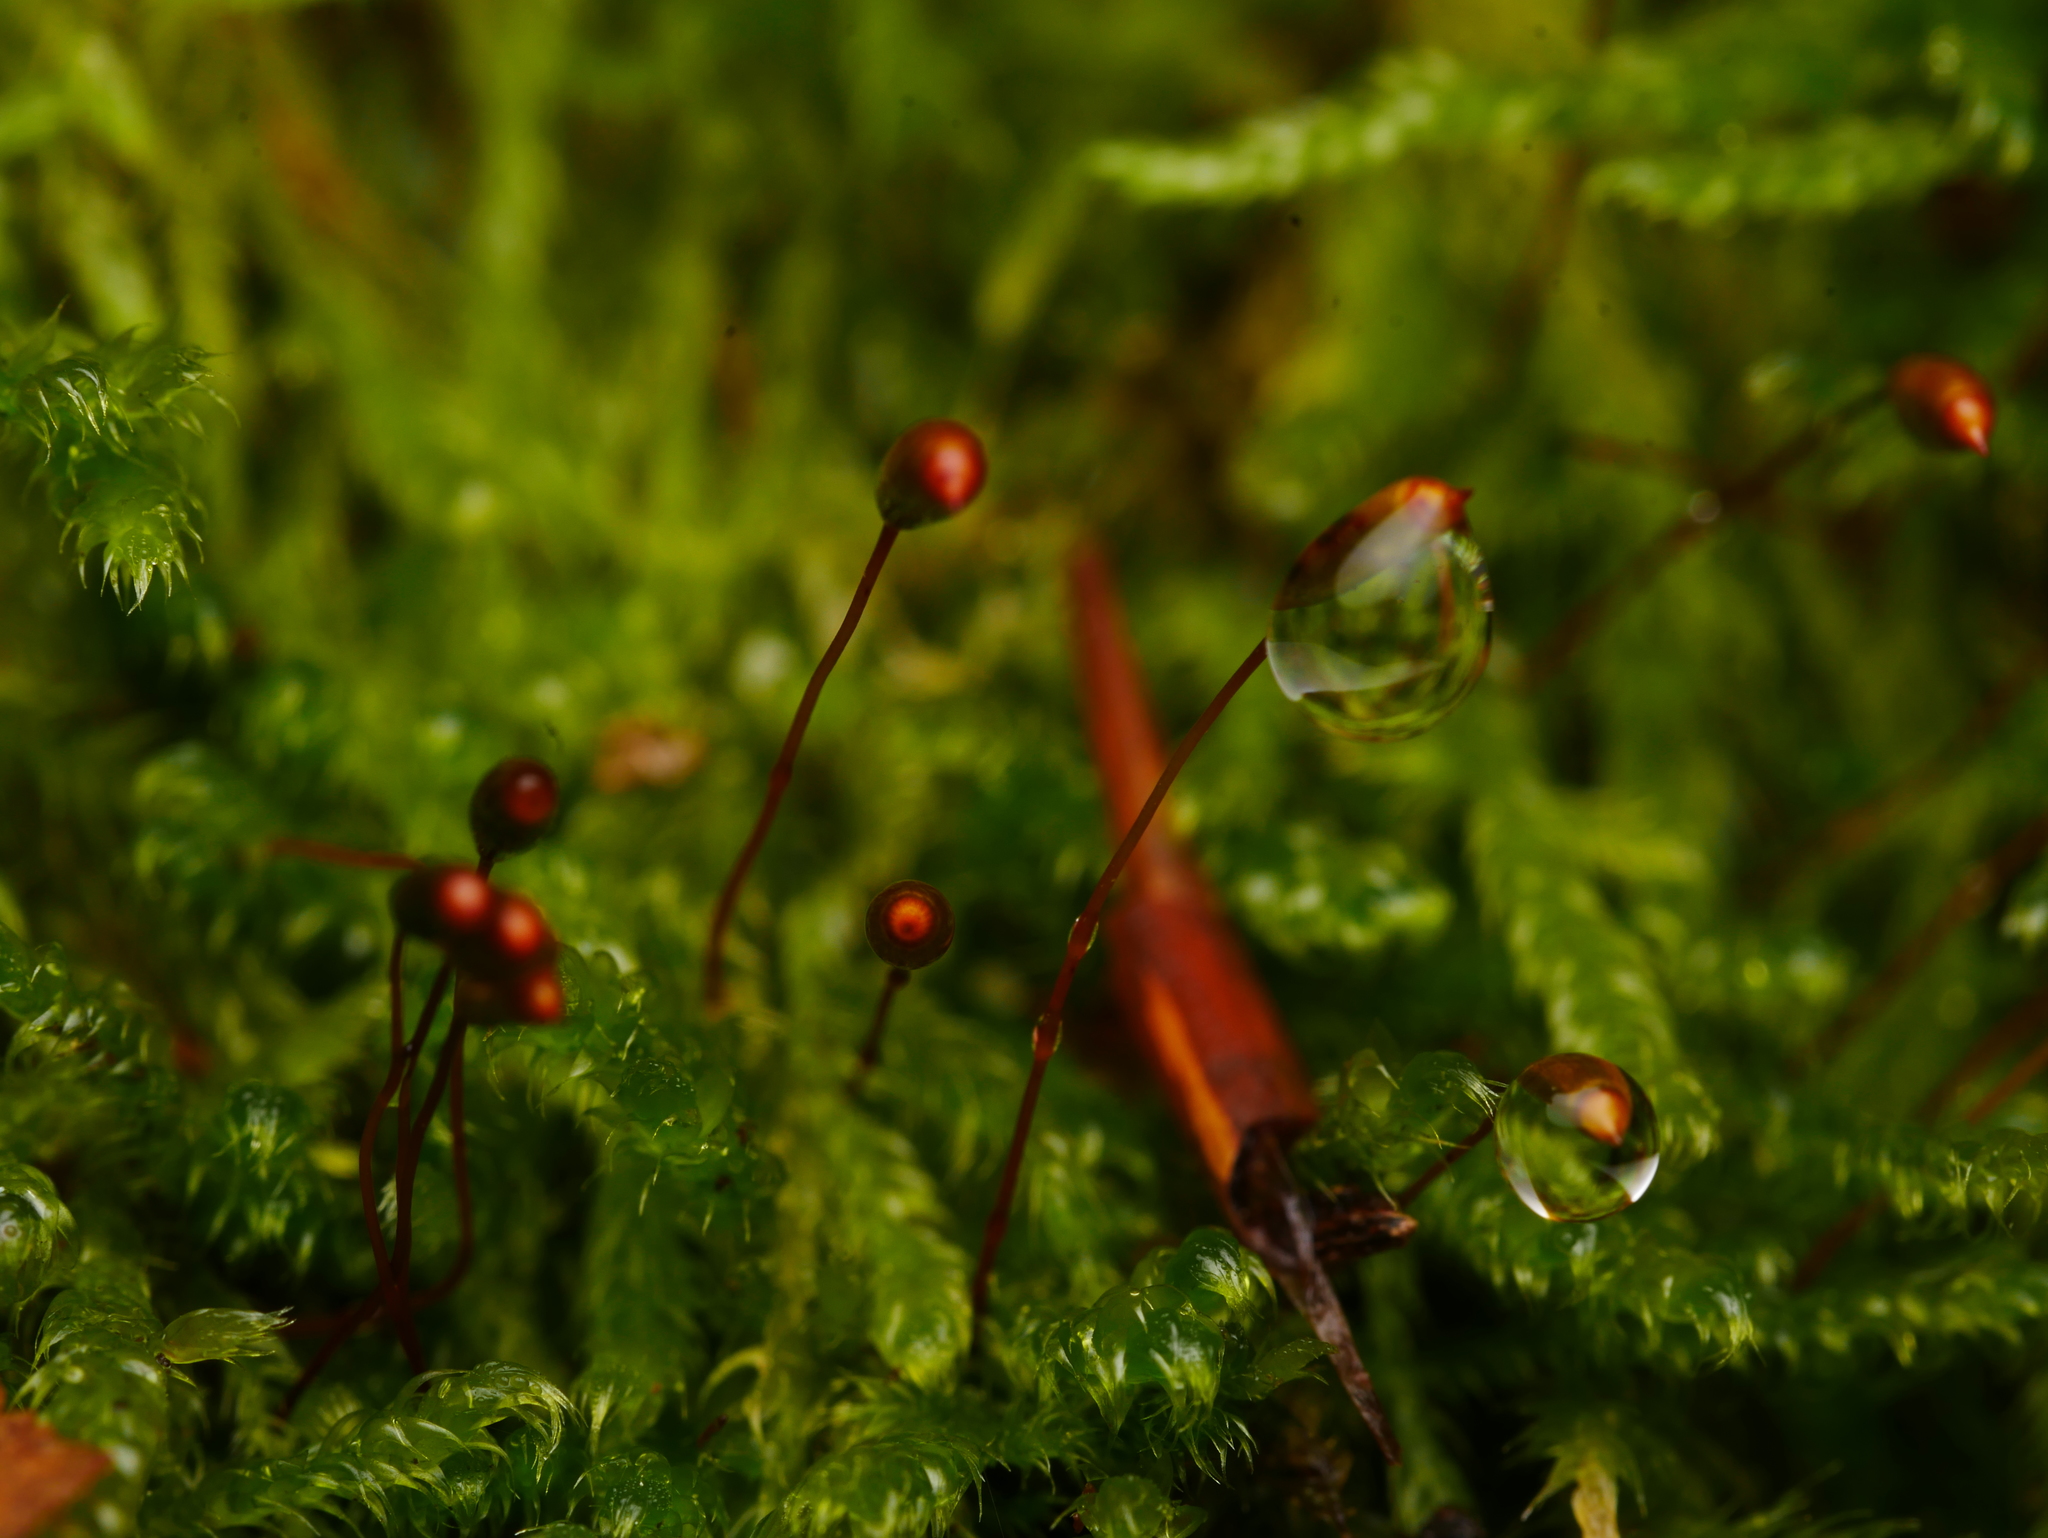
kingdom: Plantae
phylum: Bryophyta
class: Bryopsida
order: Hypnales
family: Hypnaceae
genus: Hypnum
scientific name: Hypnum cupressiforme
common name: Cypress-leaved plait-moss
